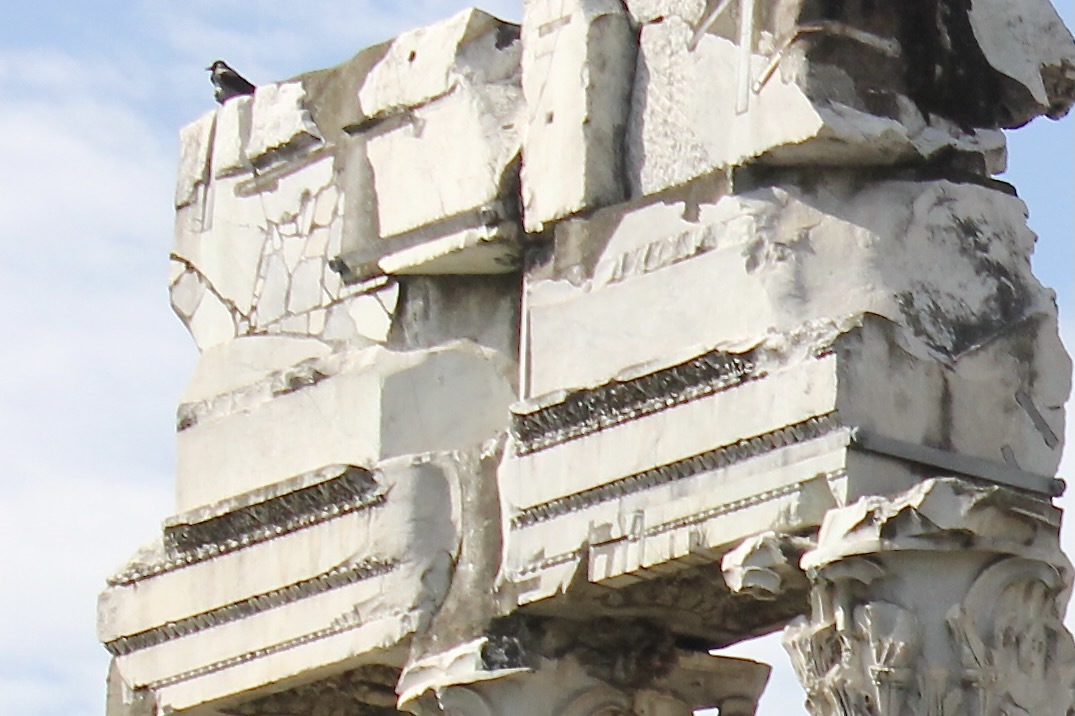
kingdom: Animalia
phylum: Chordata
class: Aves
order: Passeriformes
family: Corvidae
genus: Corvus
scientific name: Corvus cornix
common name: Hooded crow
